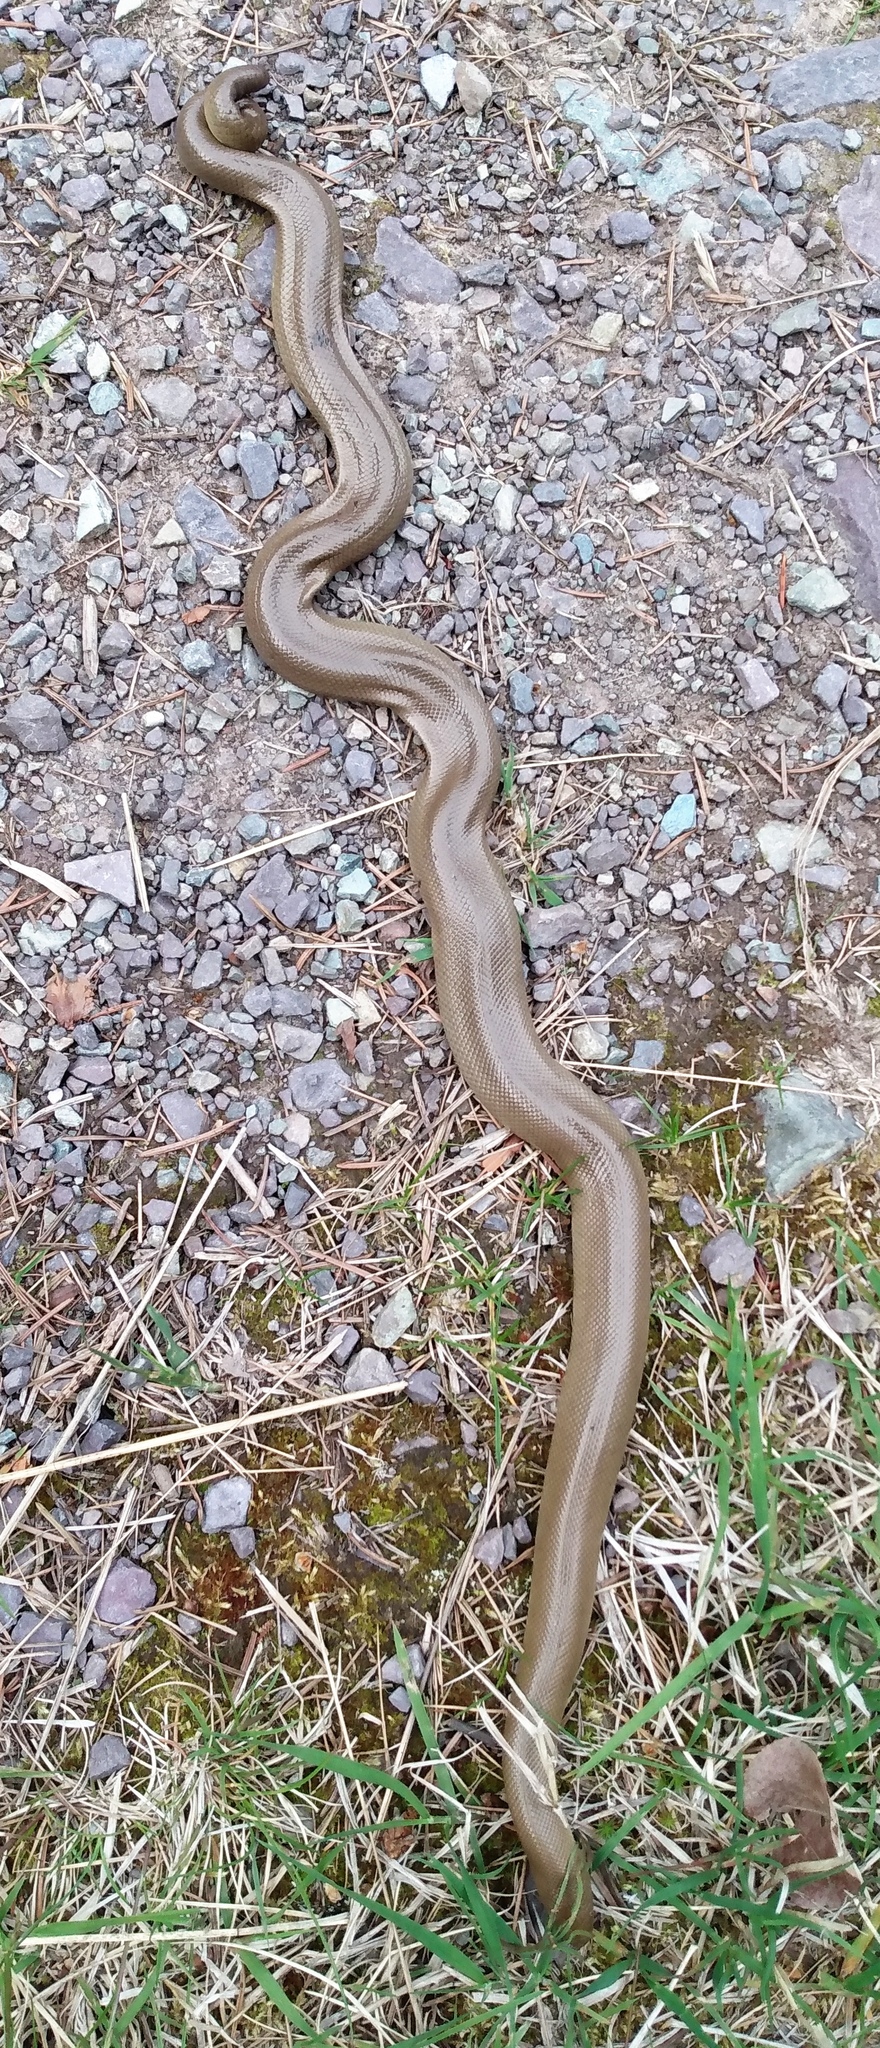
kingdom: Animalia
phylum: Chordata
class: Squamata
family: Boidae
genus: Charina
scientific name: Charina bottae
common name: Northern rubber boa
